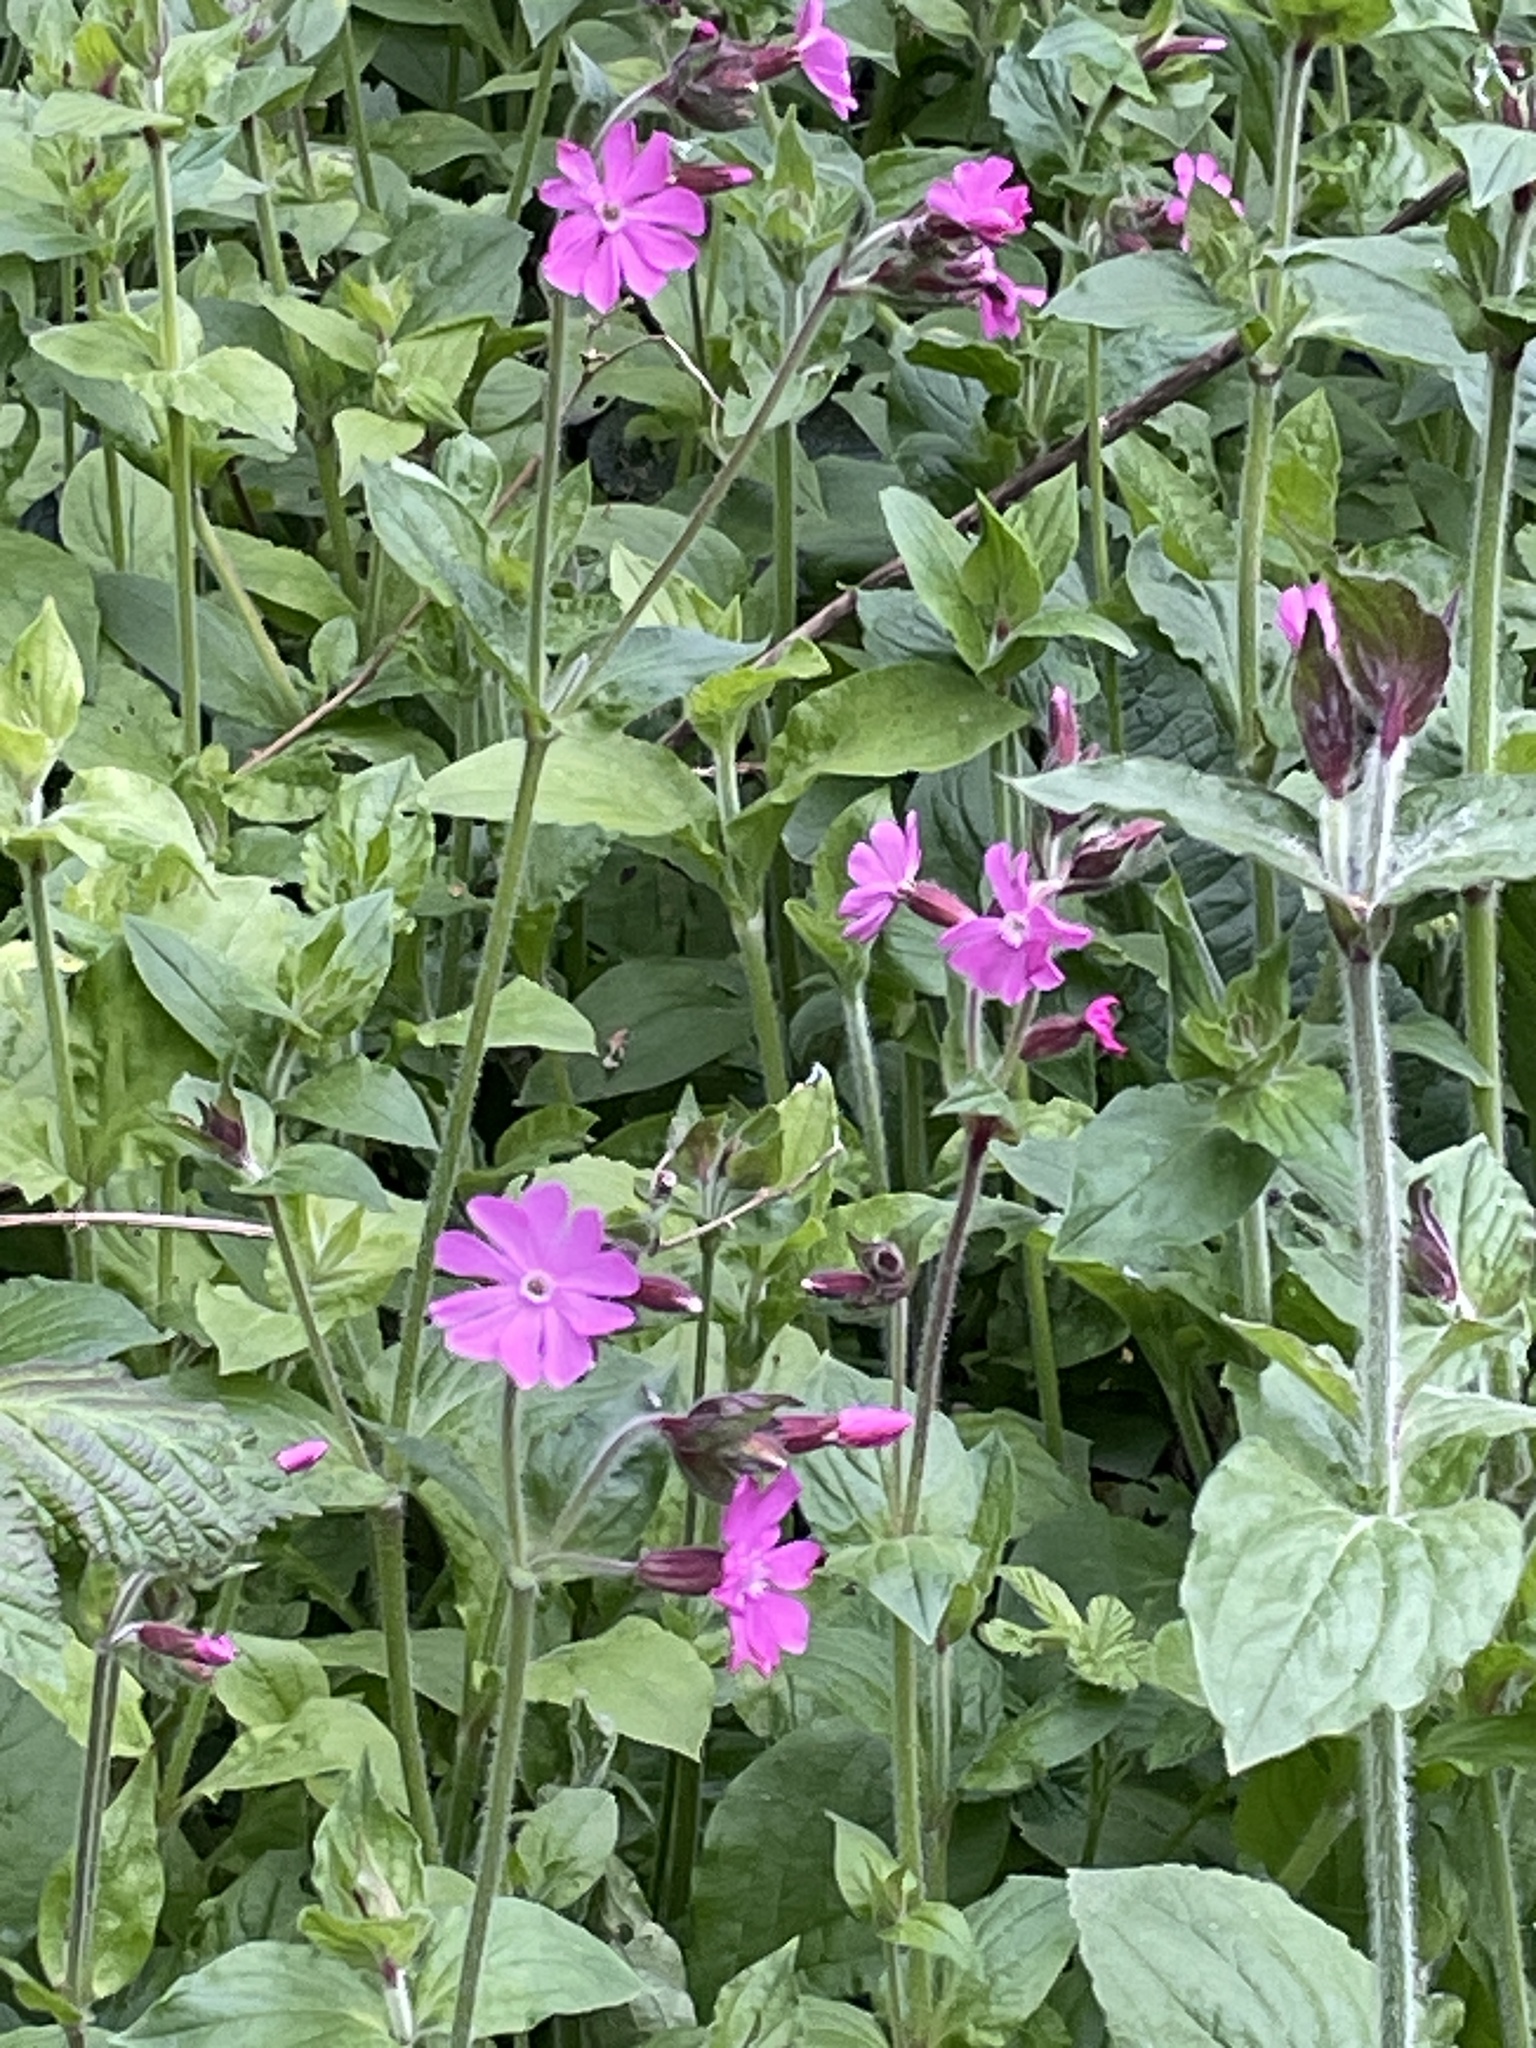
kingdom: Plantae
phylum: Tracheophyta
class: Magnoliopsida
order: Caryophyllales
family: Caryophyllaceae
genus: Silene
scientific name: Silene dioica
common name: Red campion
